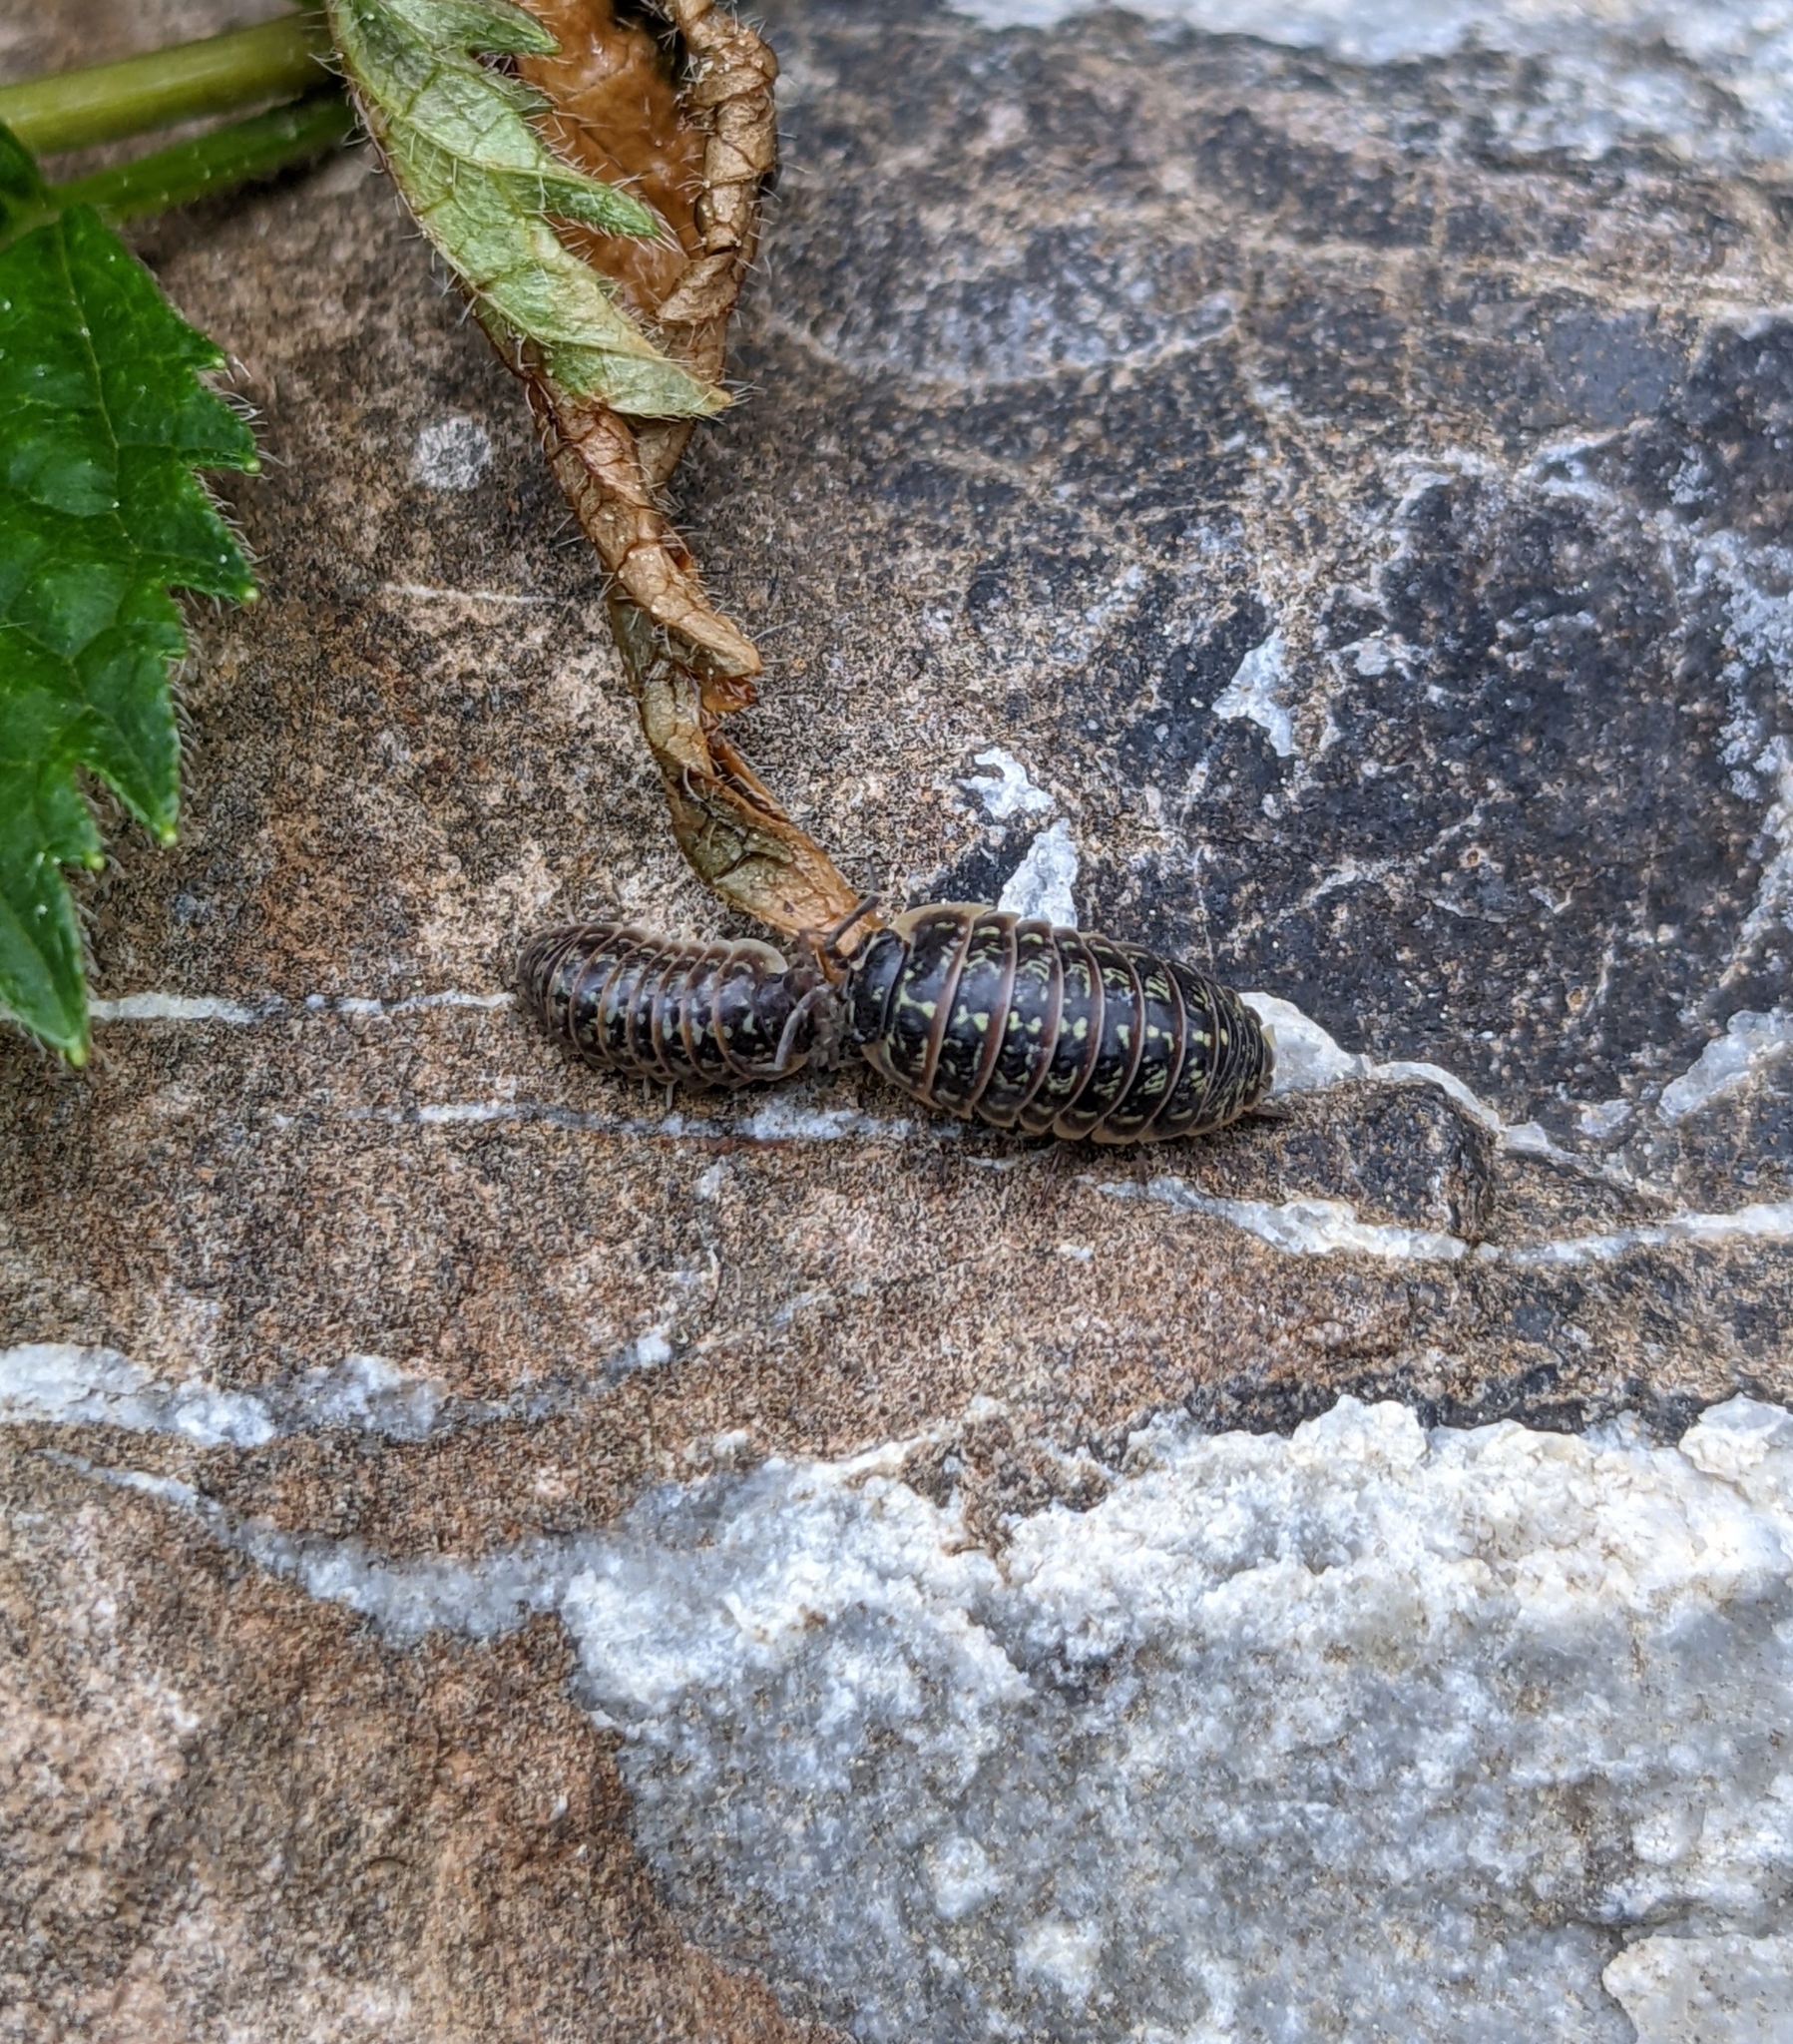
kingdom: Animalia
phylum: Arthropoda
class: Malacostraca
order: Isopoda
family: Armadillidiidae
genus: Armadillidium
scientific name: Armadillidium versicolor
